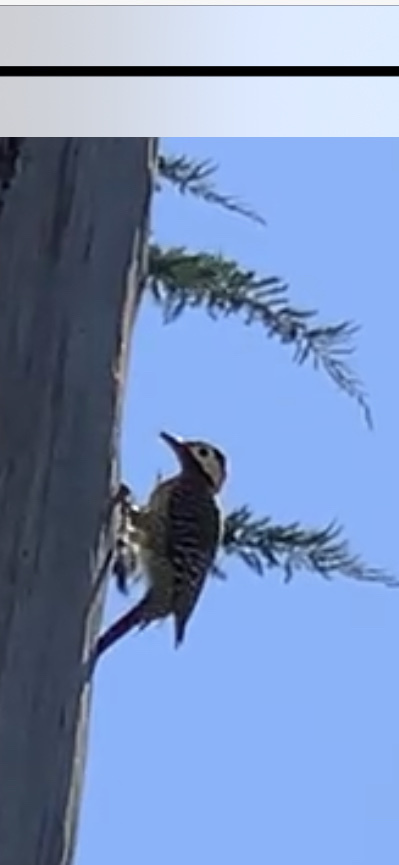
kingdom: Animalia
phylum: Chordata
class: Aves
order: Piciformes
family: Picidae
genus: Colaptes
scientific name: Colaptes melanochloros
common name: Green-barred woodpecker
